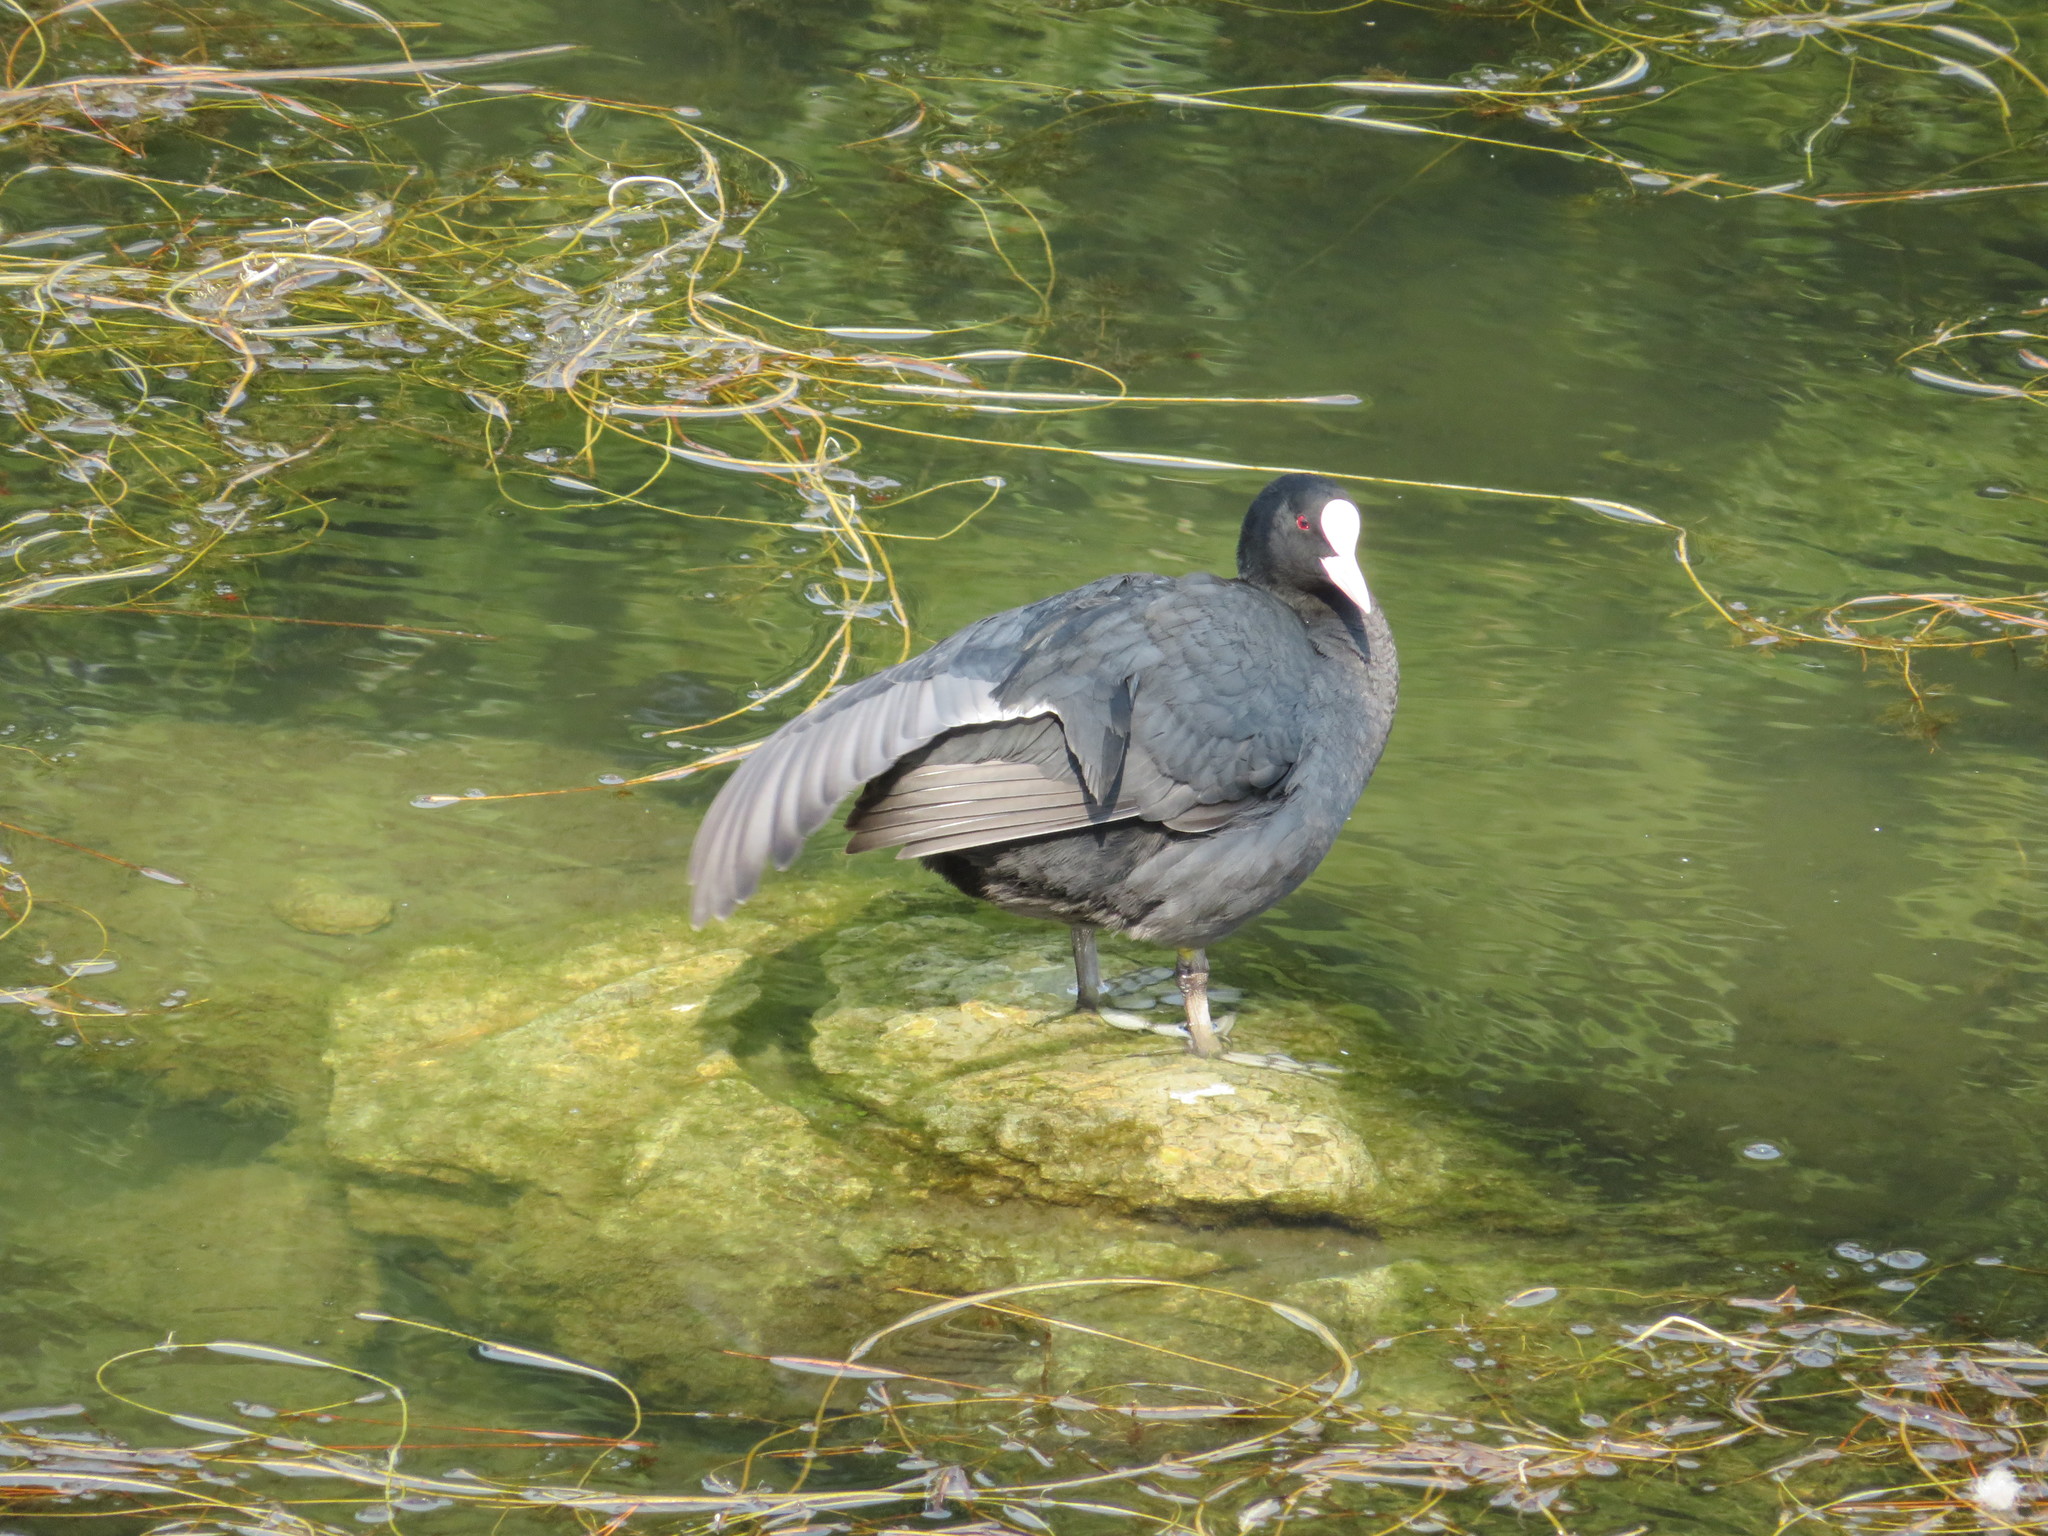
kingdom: Animalia
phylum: Chordata
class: Aves
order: Gruiformes
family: Rallidae
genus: Fulica
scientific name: Fulica atra
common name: Eurasian coot
